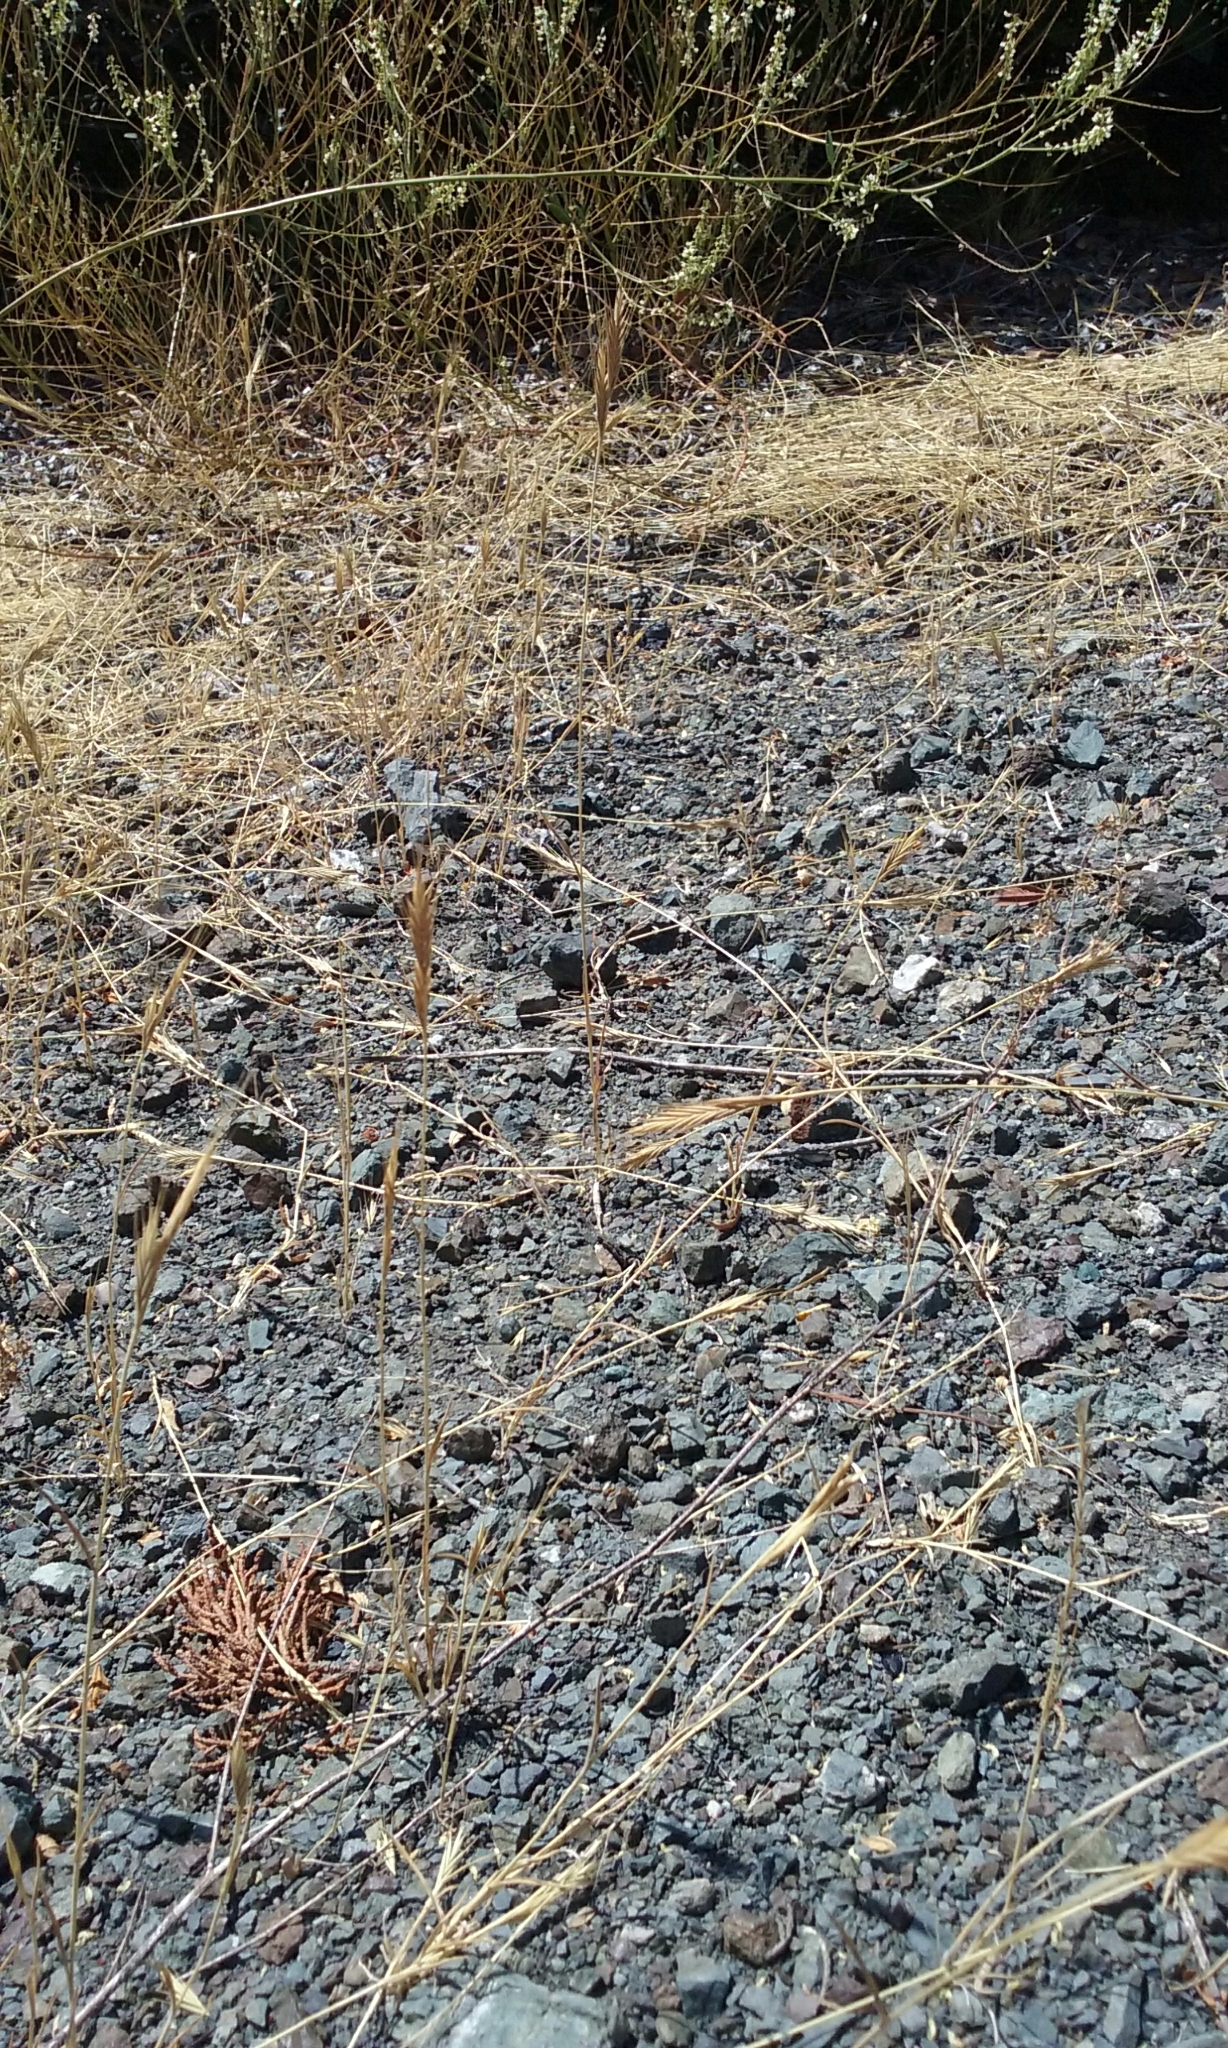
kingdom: Plantae
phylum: Tracheophyta
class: Liliopsida
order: Poales
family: Poaceae
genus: Brachypodium
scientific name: Brachypodium distachyon
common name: Stiff brome
